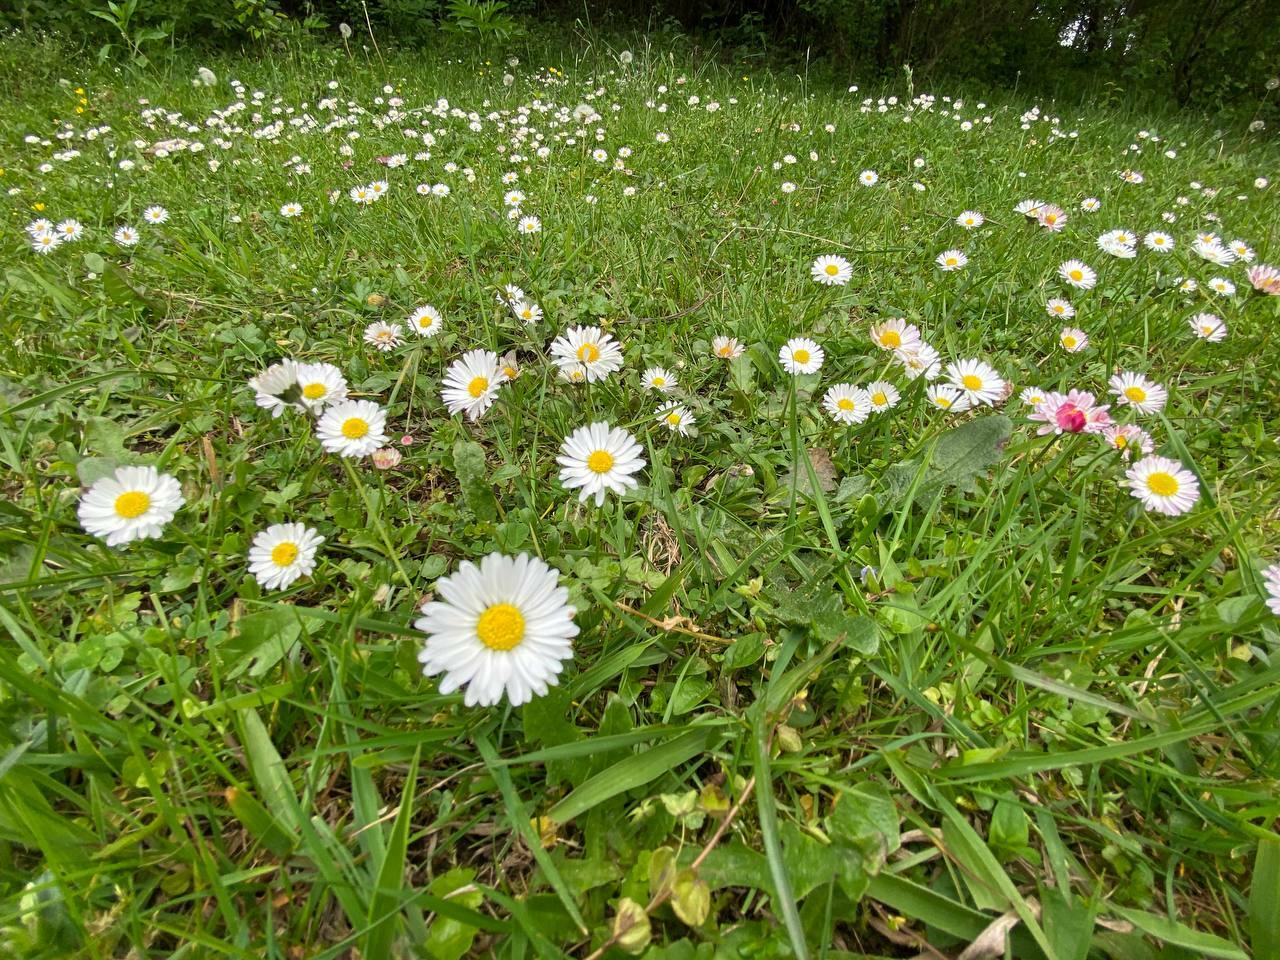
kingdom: Plantae
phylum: Tracheophyta
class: Magnoliopsida
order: Asterales
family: Asteraceae
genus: Bellis
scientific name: Bellis perennis
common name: Lawndaisy
